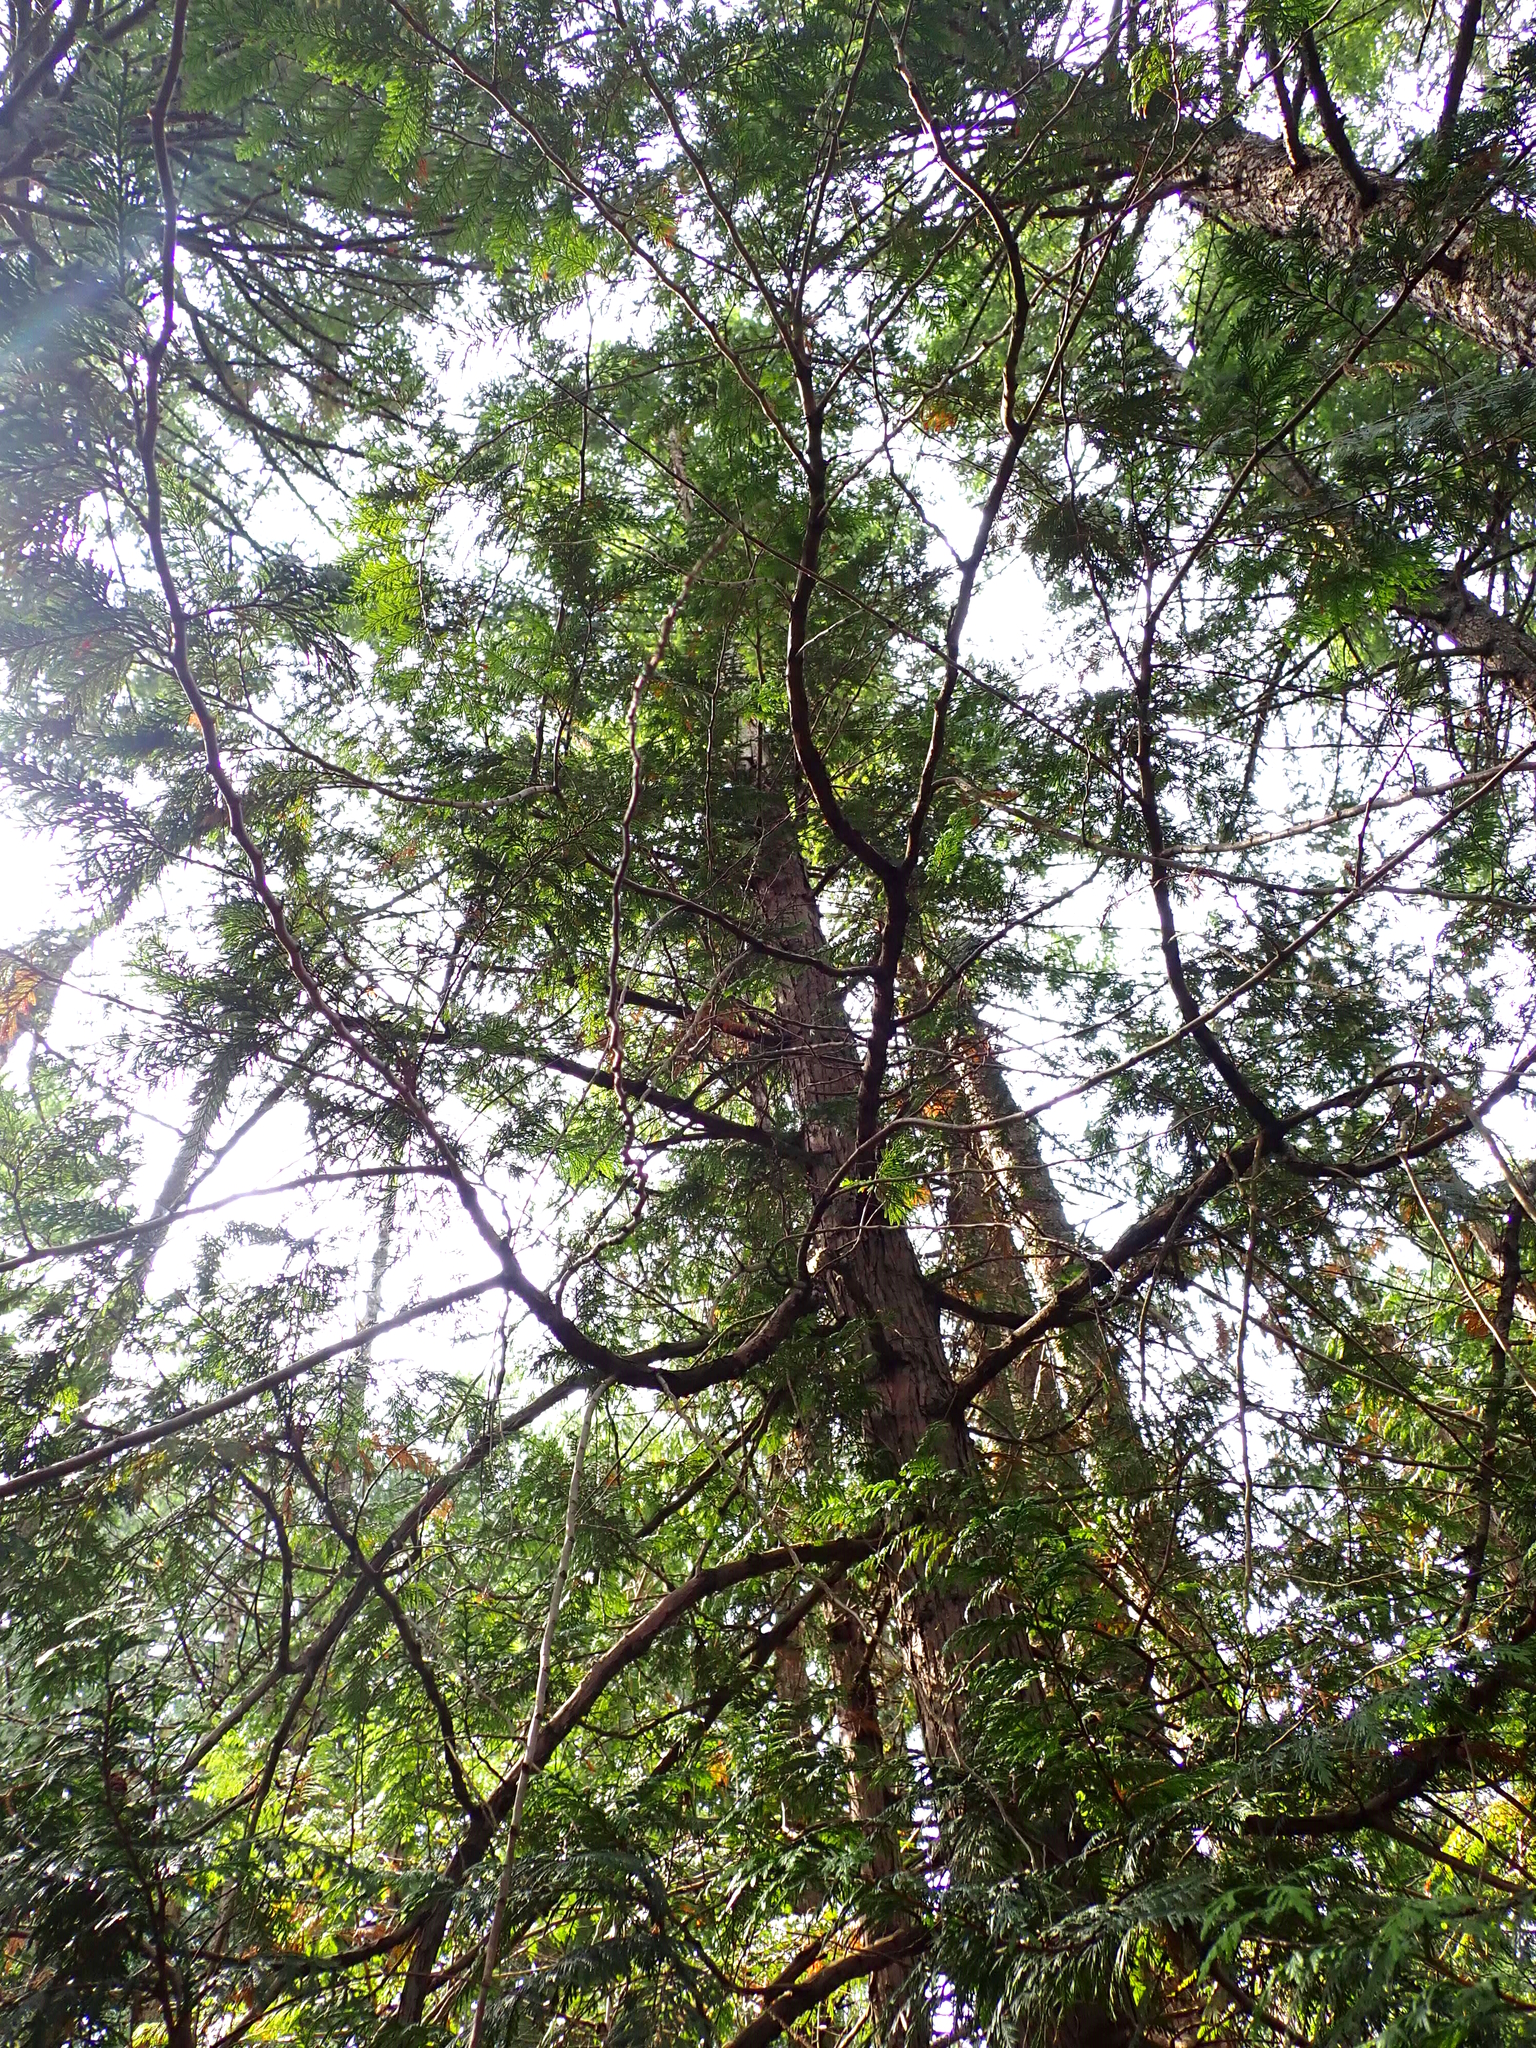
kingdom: Plantae
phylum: Tracheophyta
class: Pinopsida
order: Pinales
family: Cupressaceae
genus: Thuja
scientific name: Thuja plicata
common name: Western red-cedar
